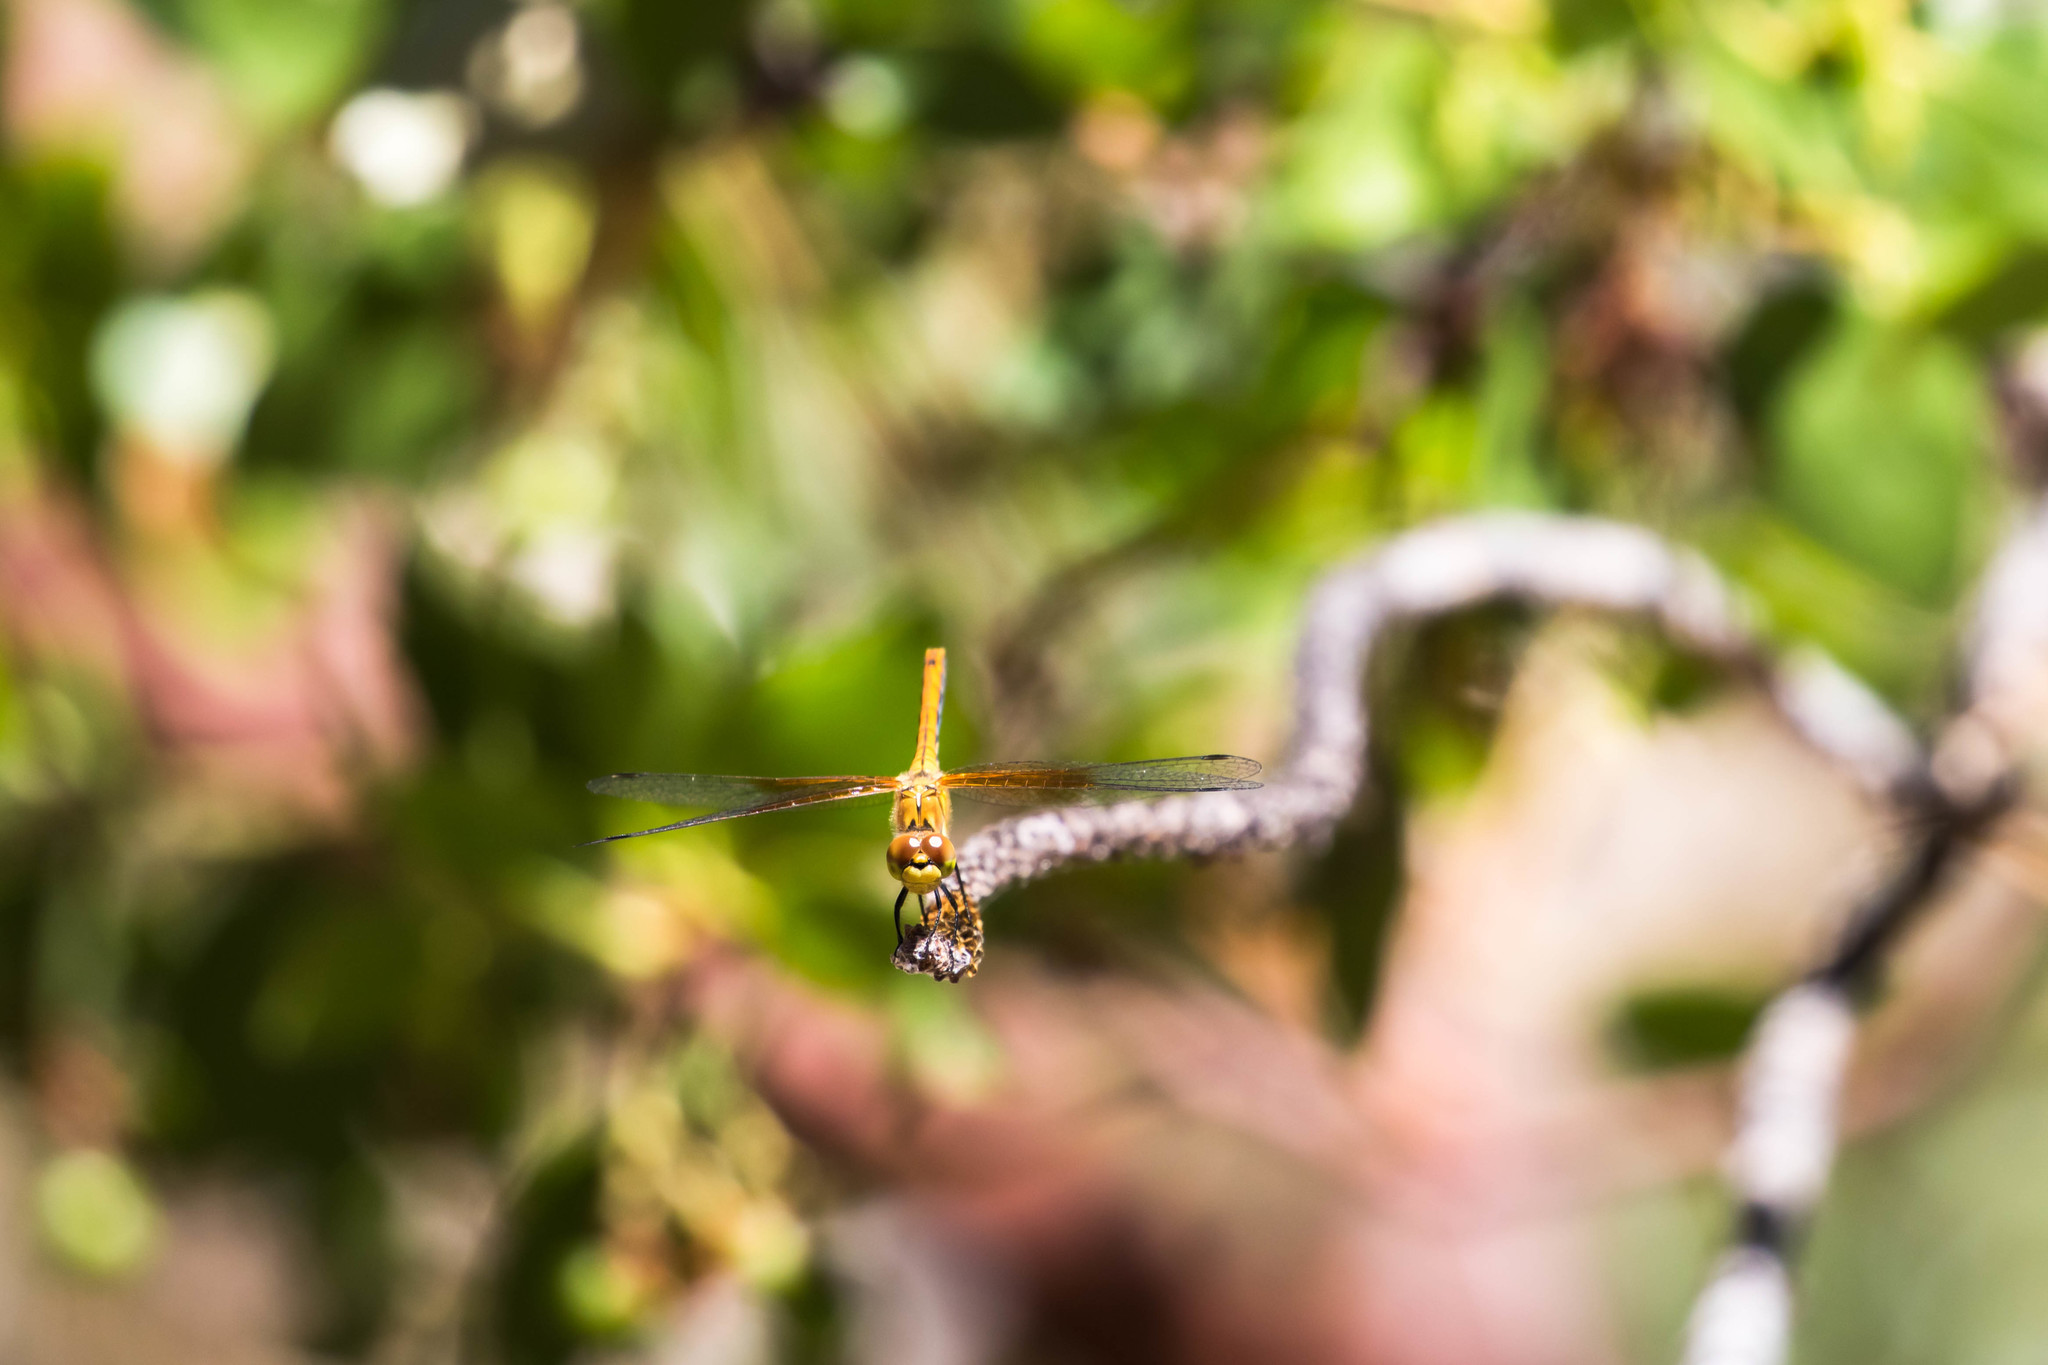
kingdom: Animalia
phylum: Arthropoda
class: Insecta
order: Odonata
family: Libellulidae
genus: Sympetrum
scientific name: Sympetrum semicinctum
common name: Band-winged meadowhawk
